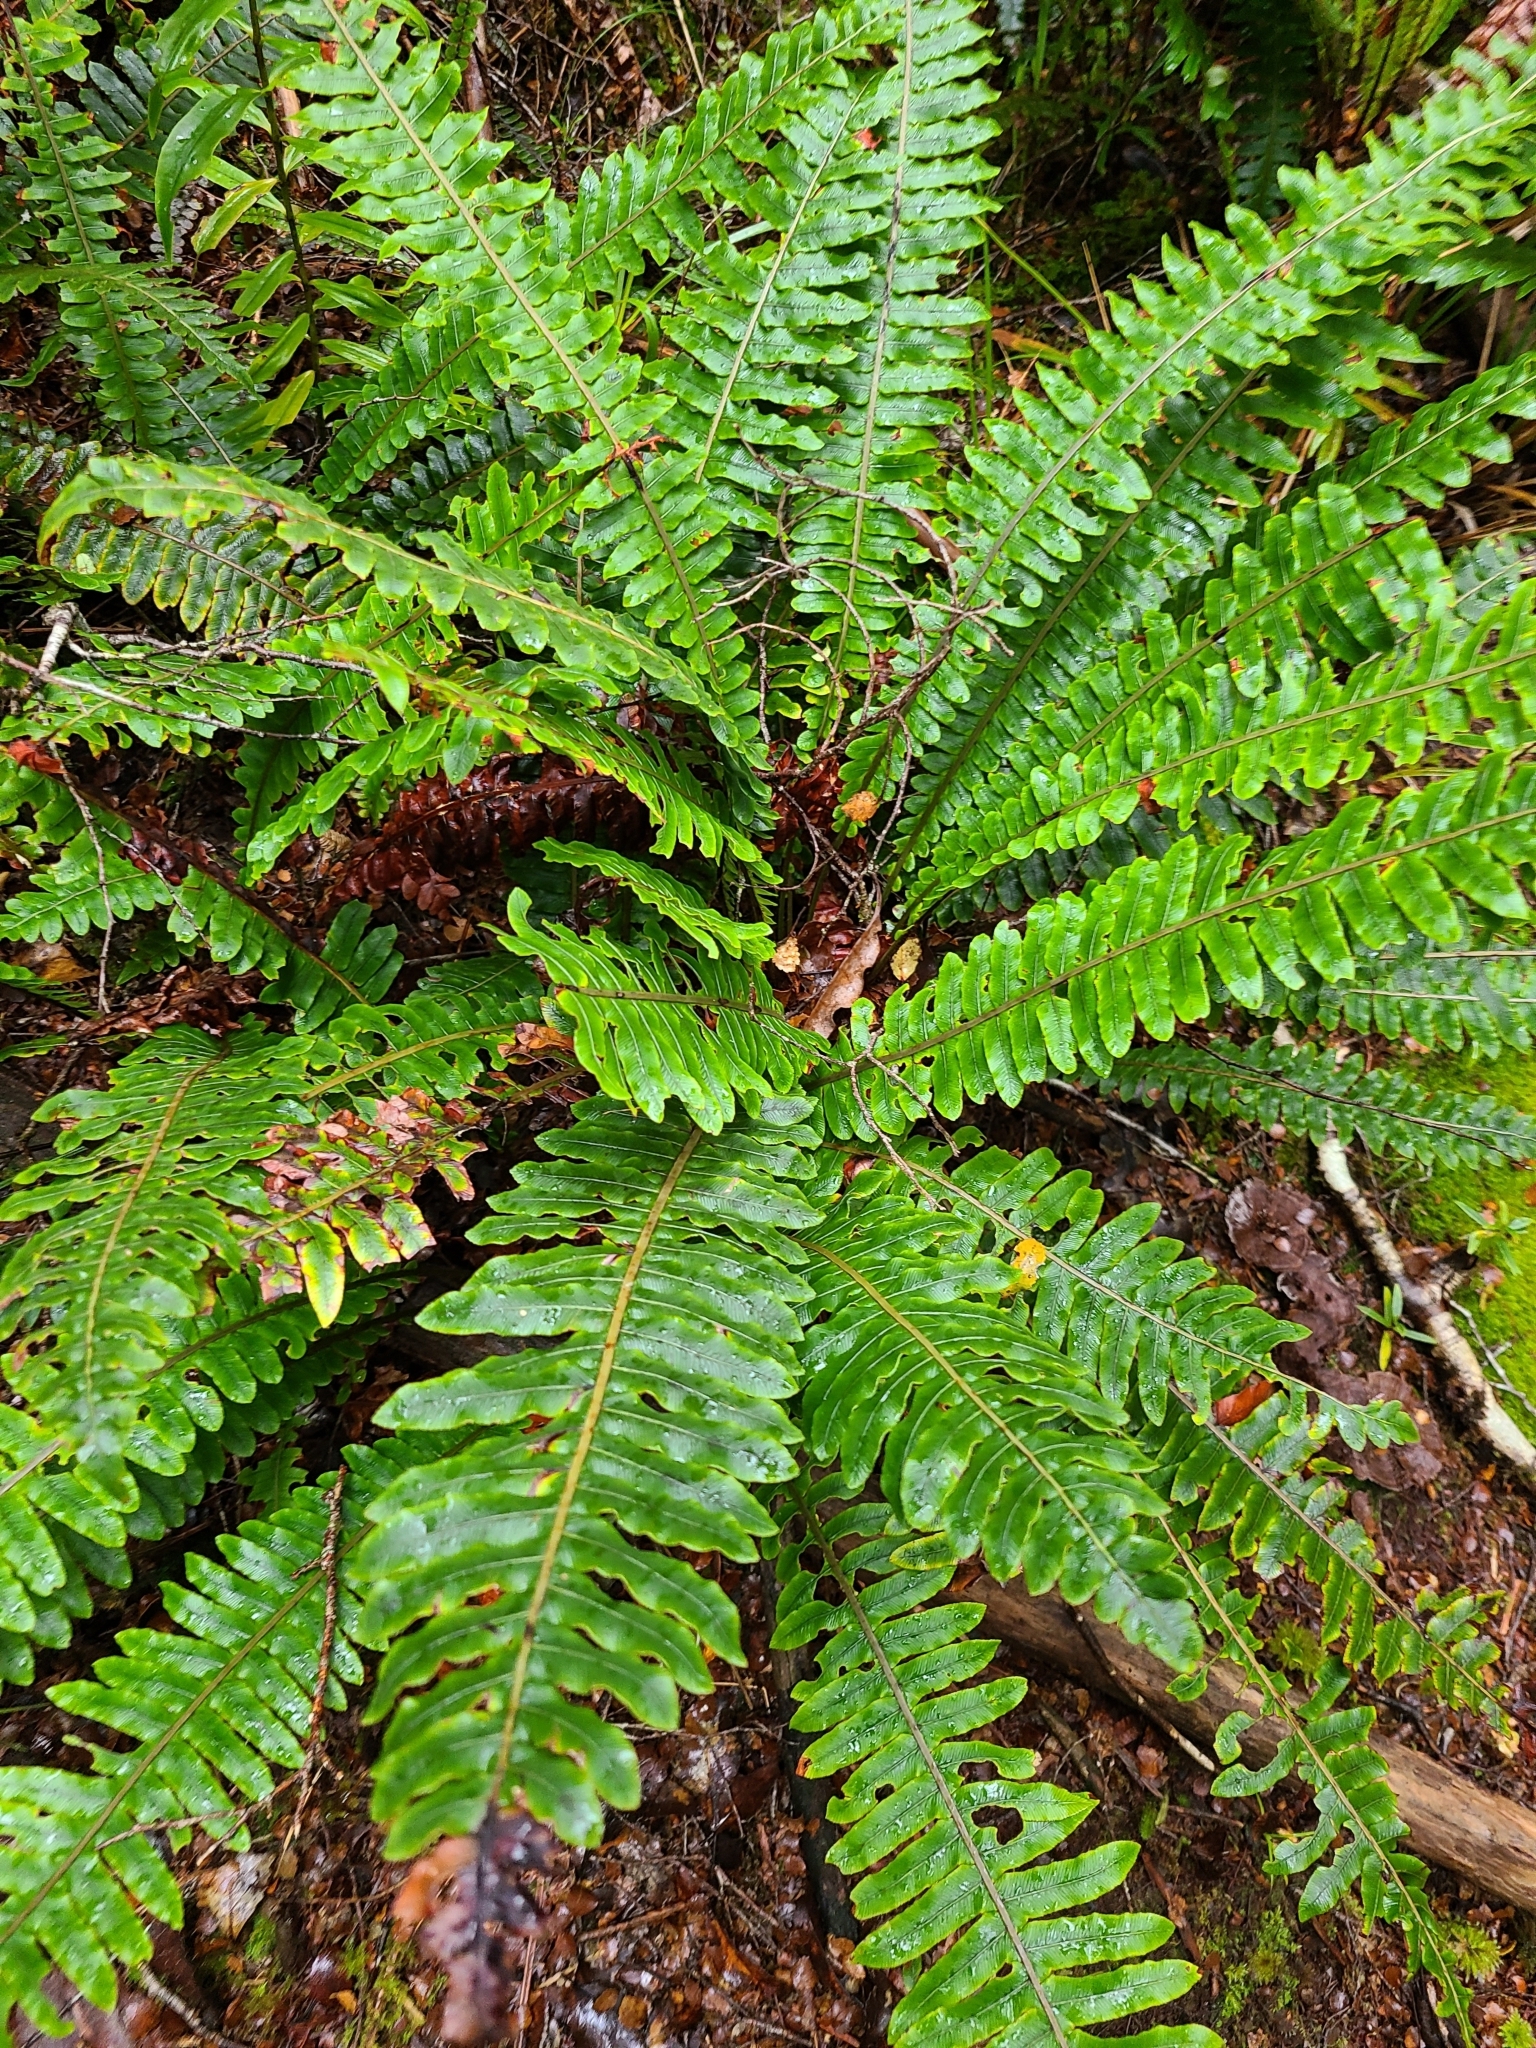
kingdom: Plantae
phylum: Tracheophyta
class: Polypodiopsida
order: Polypodiales
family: Blechnaceae
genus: Lomaria
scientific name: Lomaria discolor
